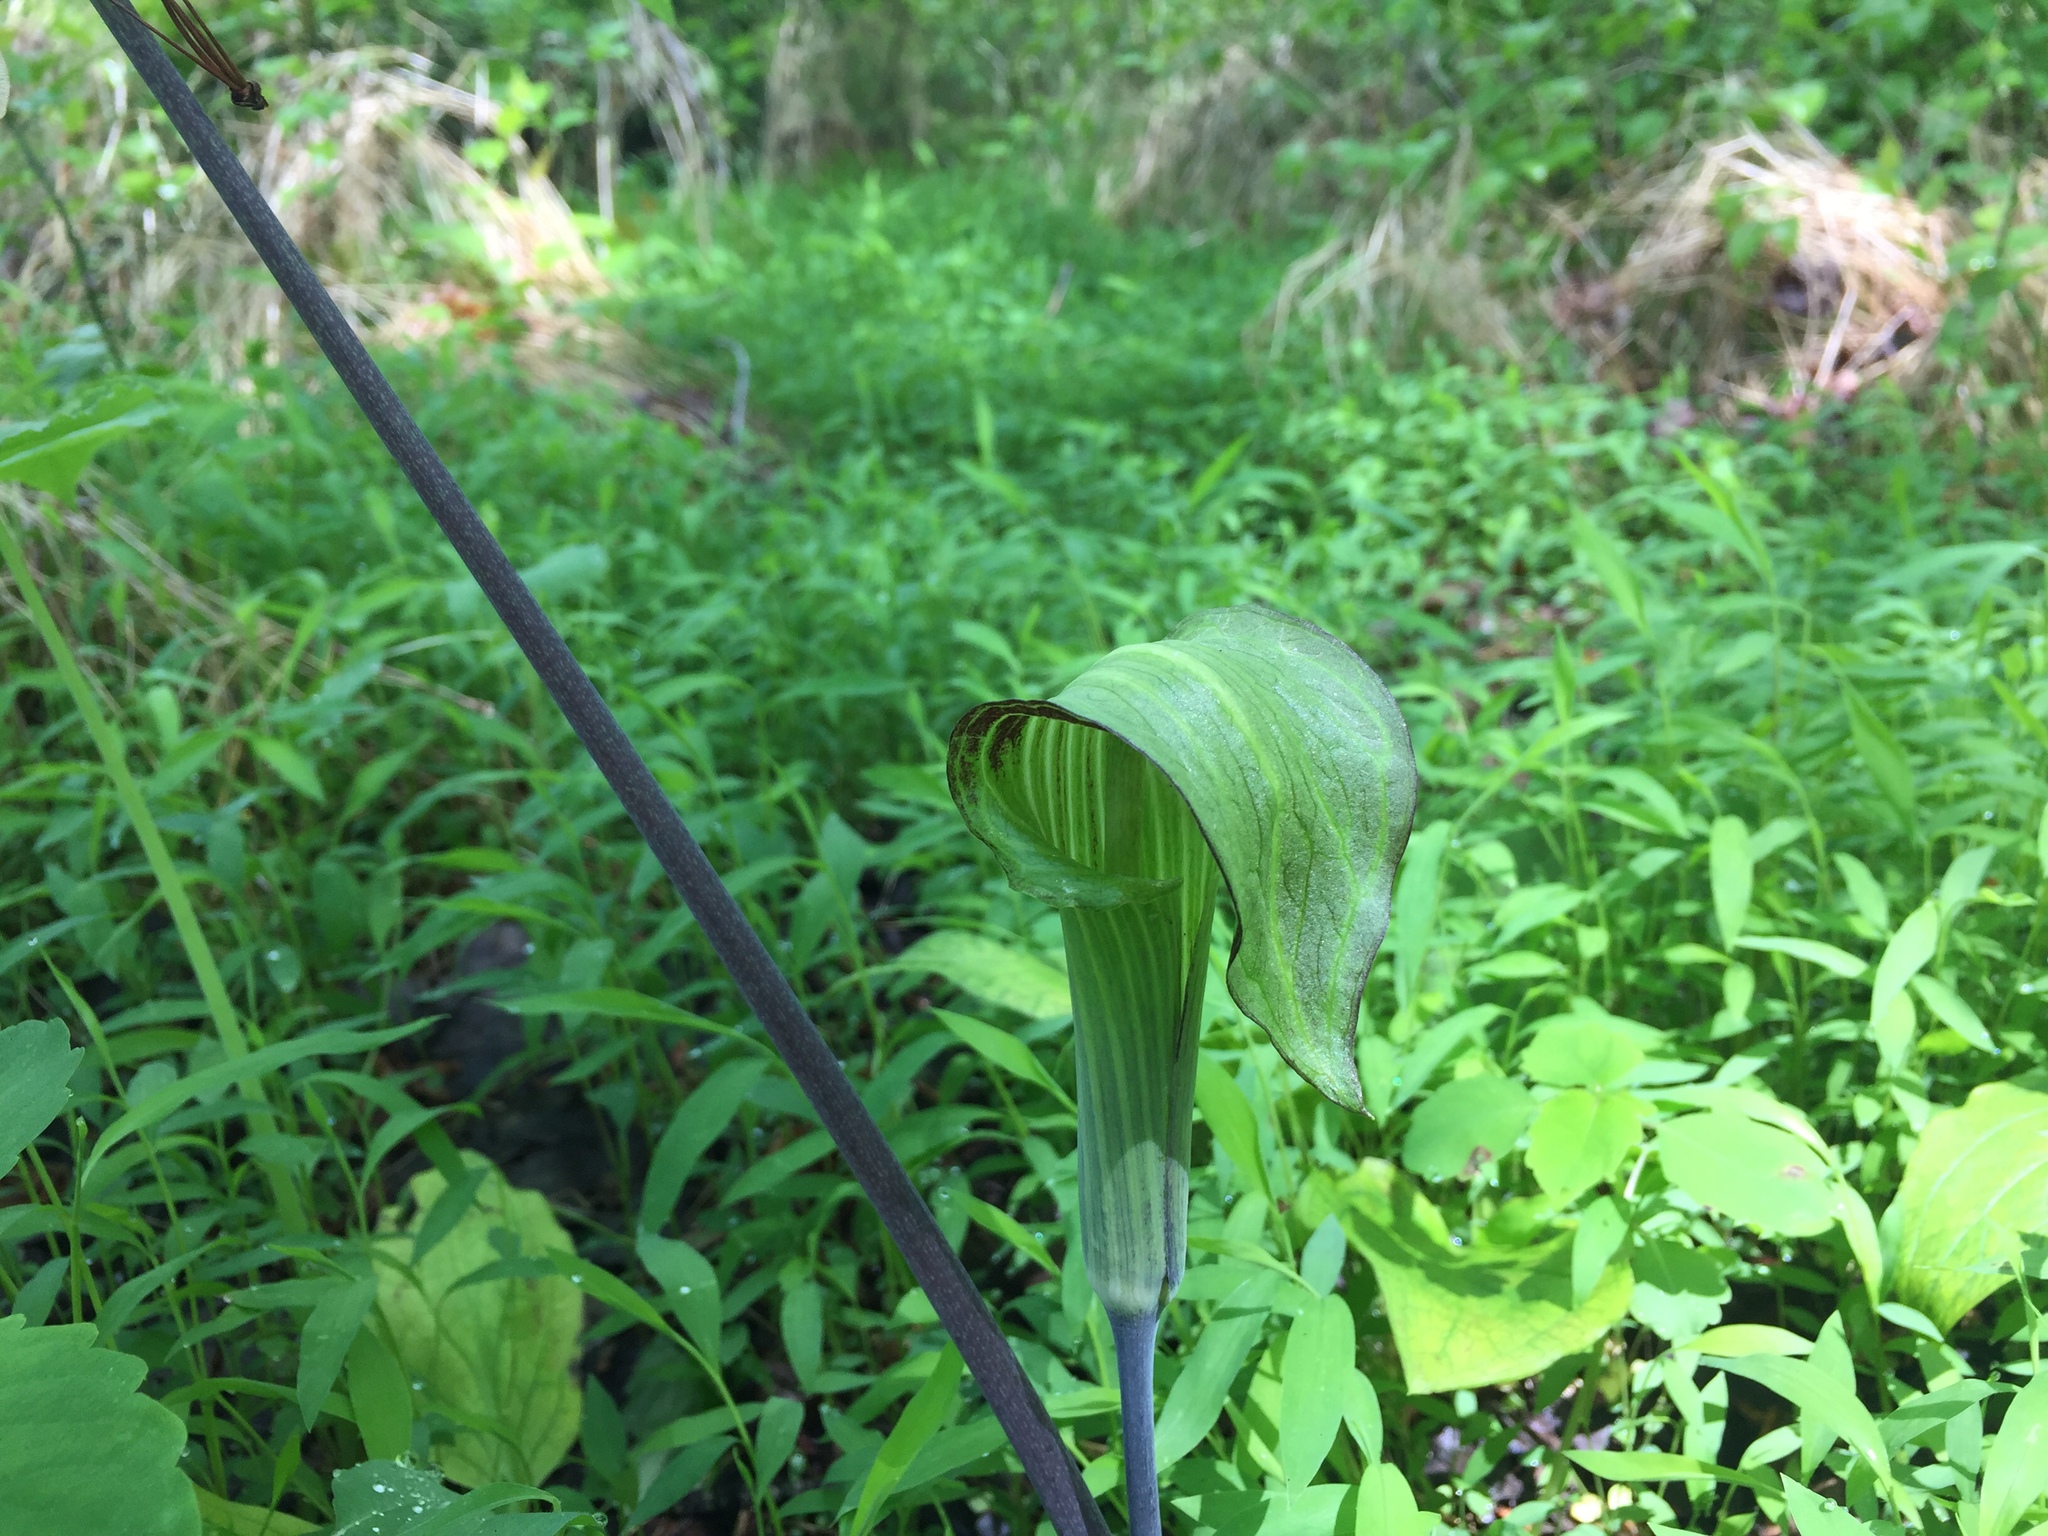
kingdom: Plantae
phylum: Tracheophyta
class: Liliopsida
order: Alismatales
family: Araceae
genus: Arisaema
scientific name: Arisaema triphyllum
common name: Jack-in-the-pulpit
